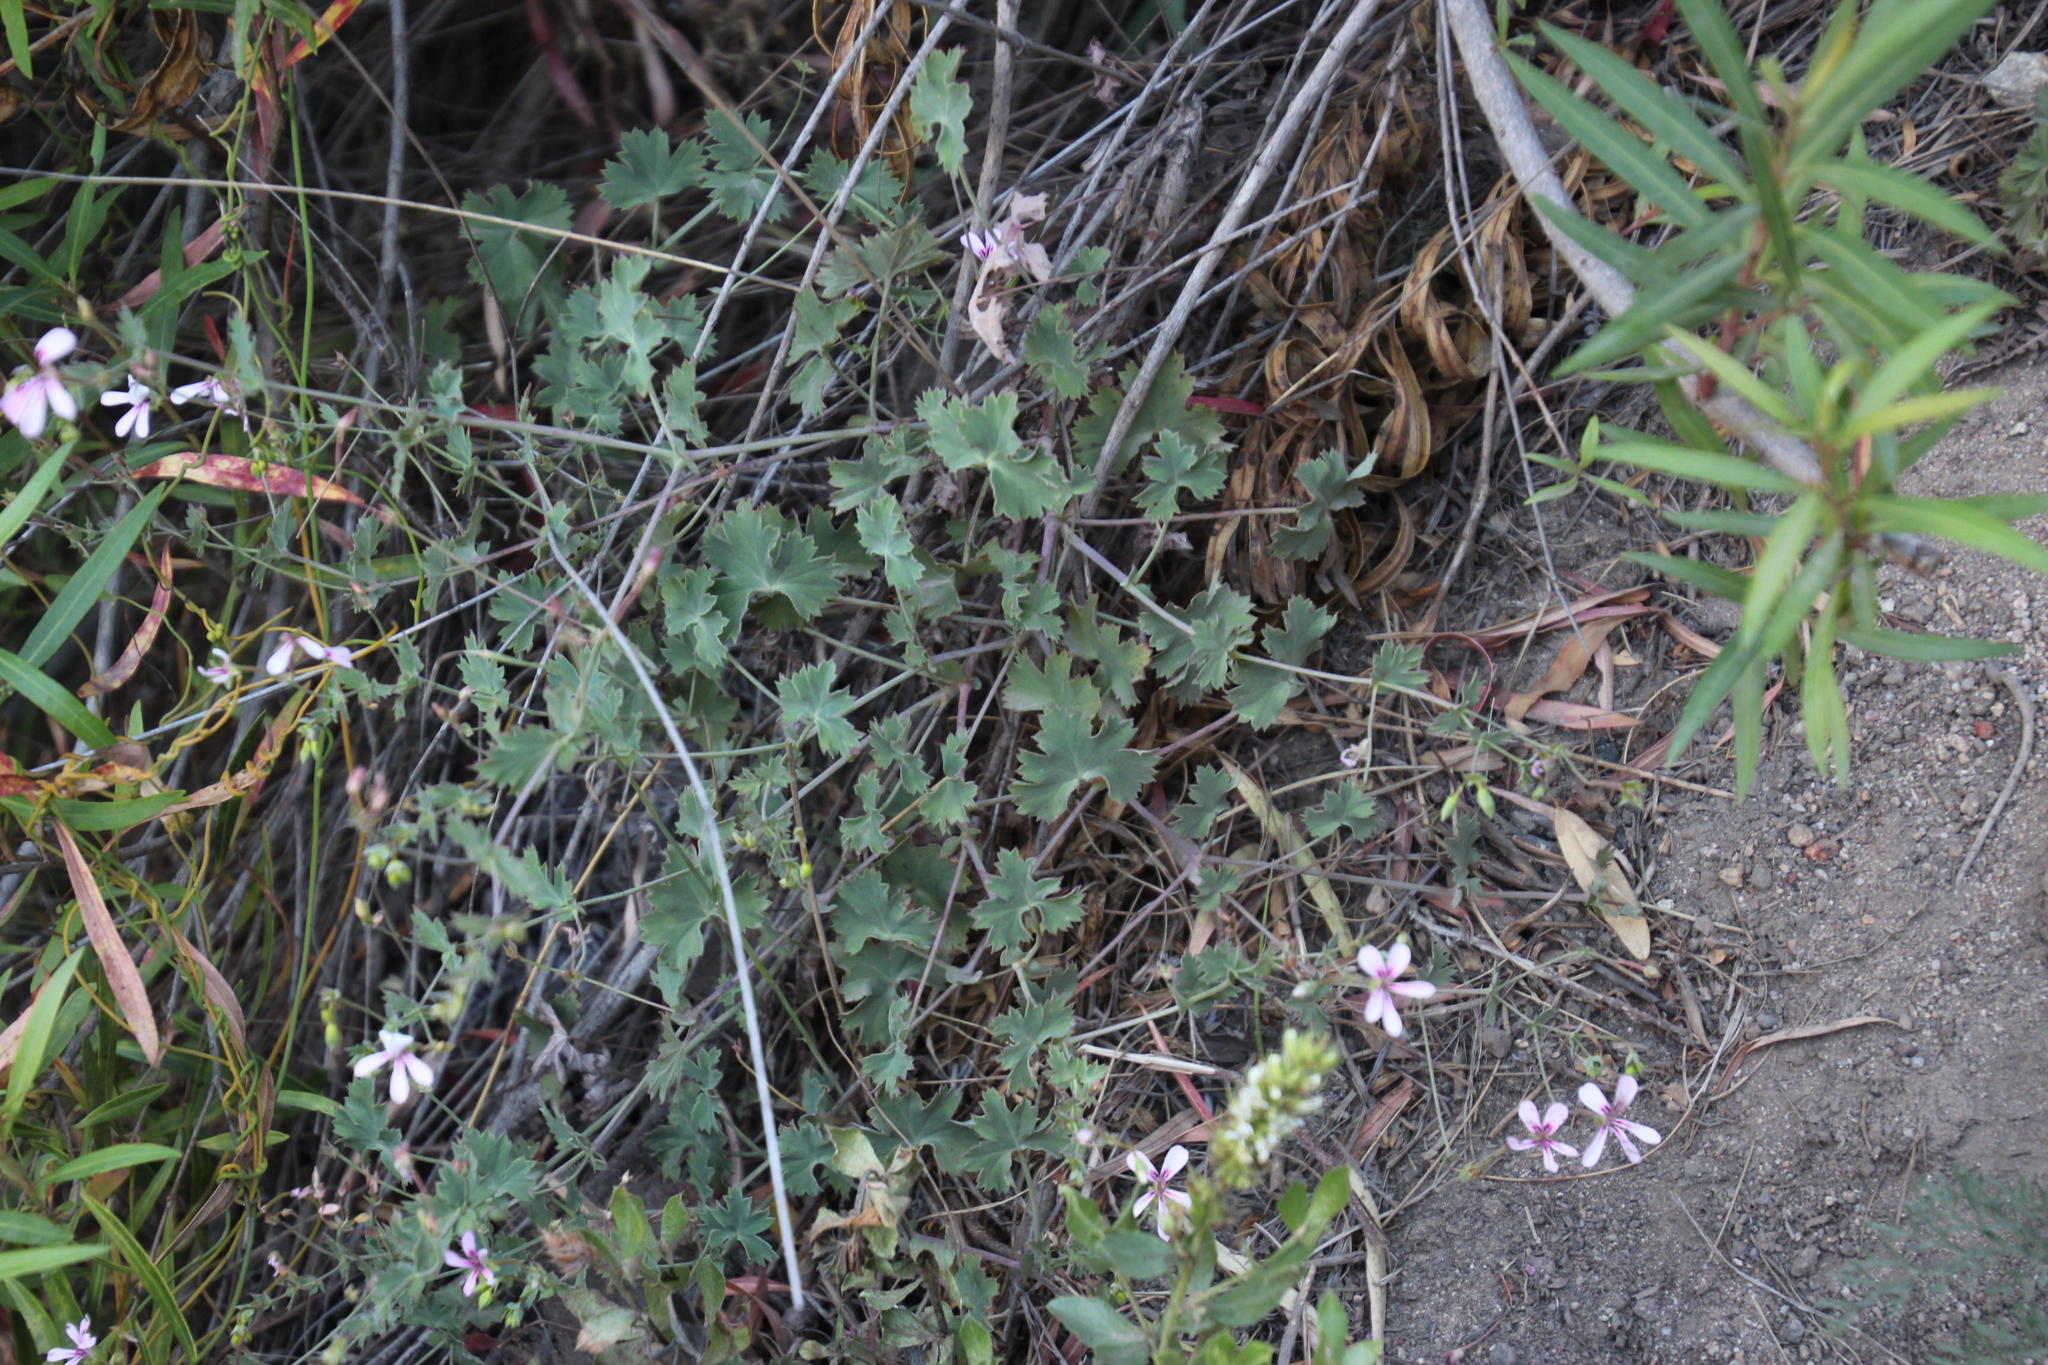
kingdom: Plantae
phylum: Tracheophyta
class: Magnoliopsida
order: Geraniales
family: Geraniaceae
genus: Pelargonium
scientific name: Pelargonium patulum
